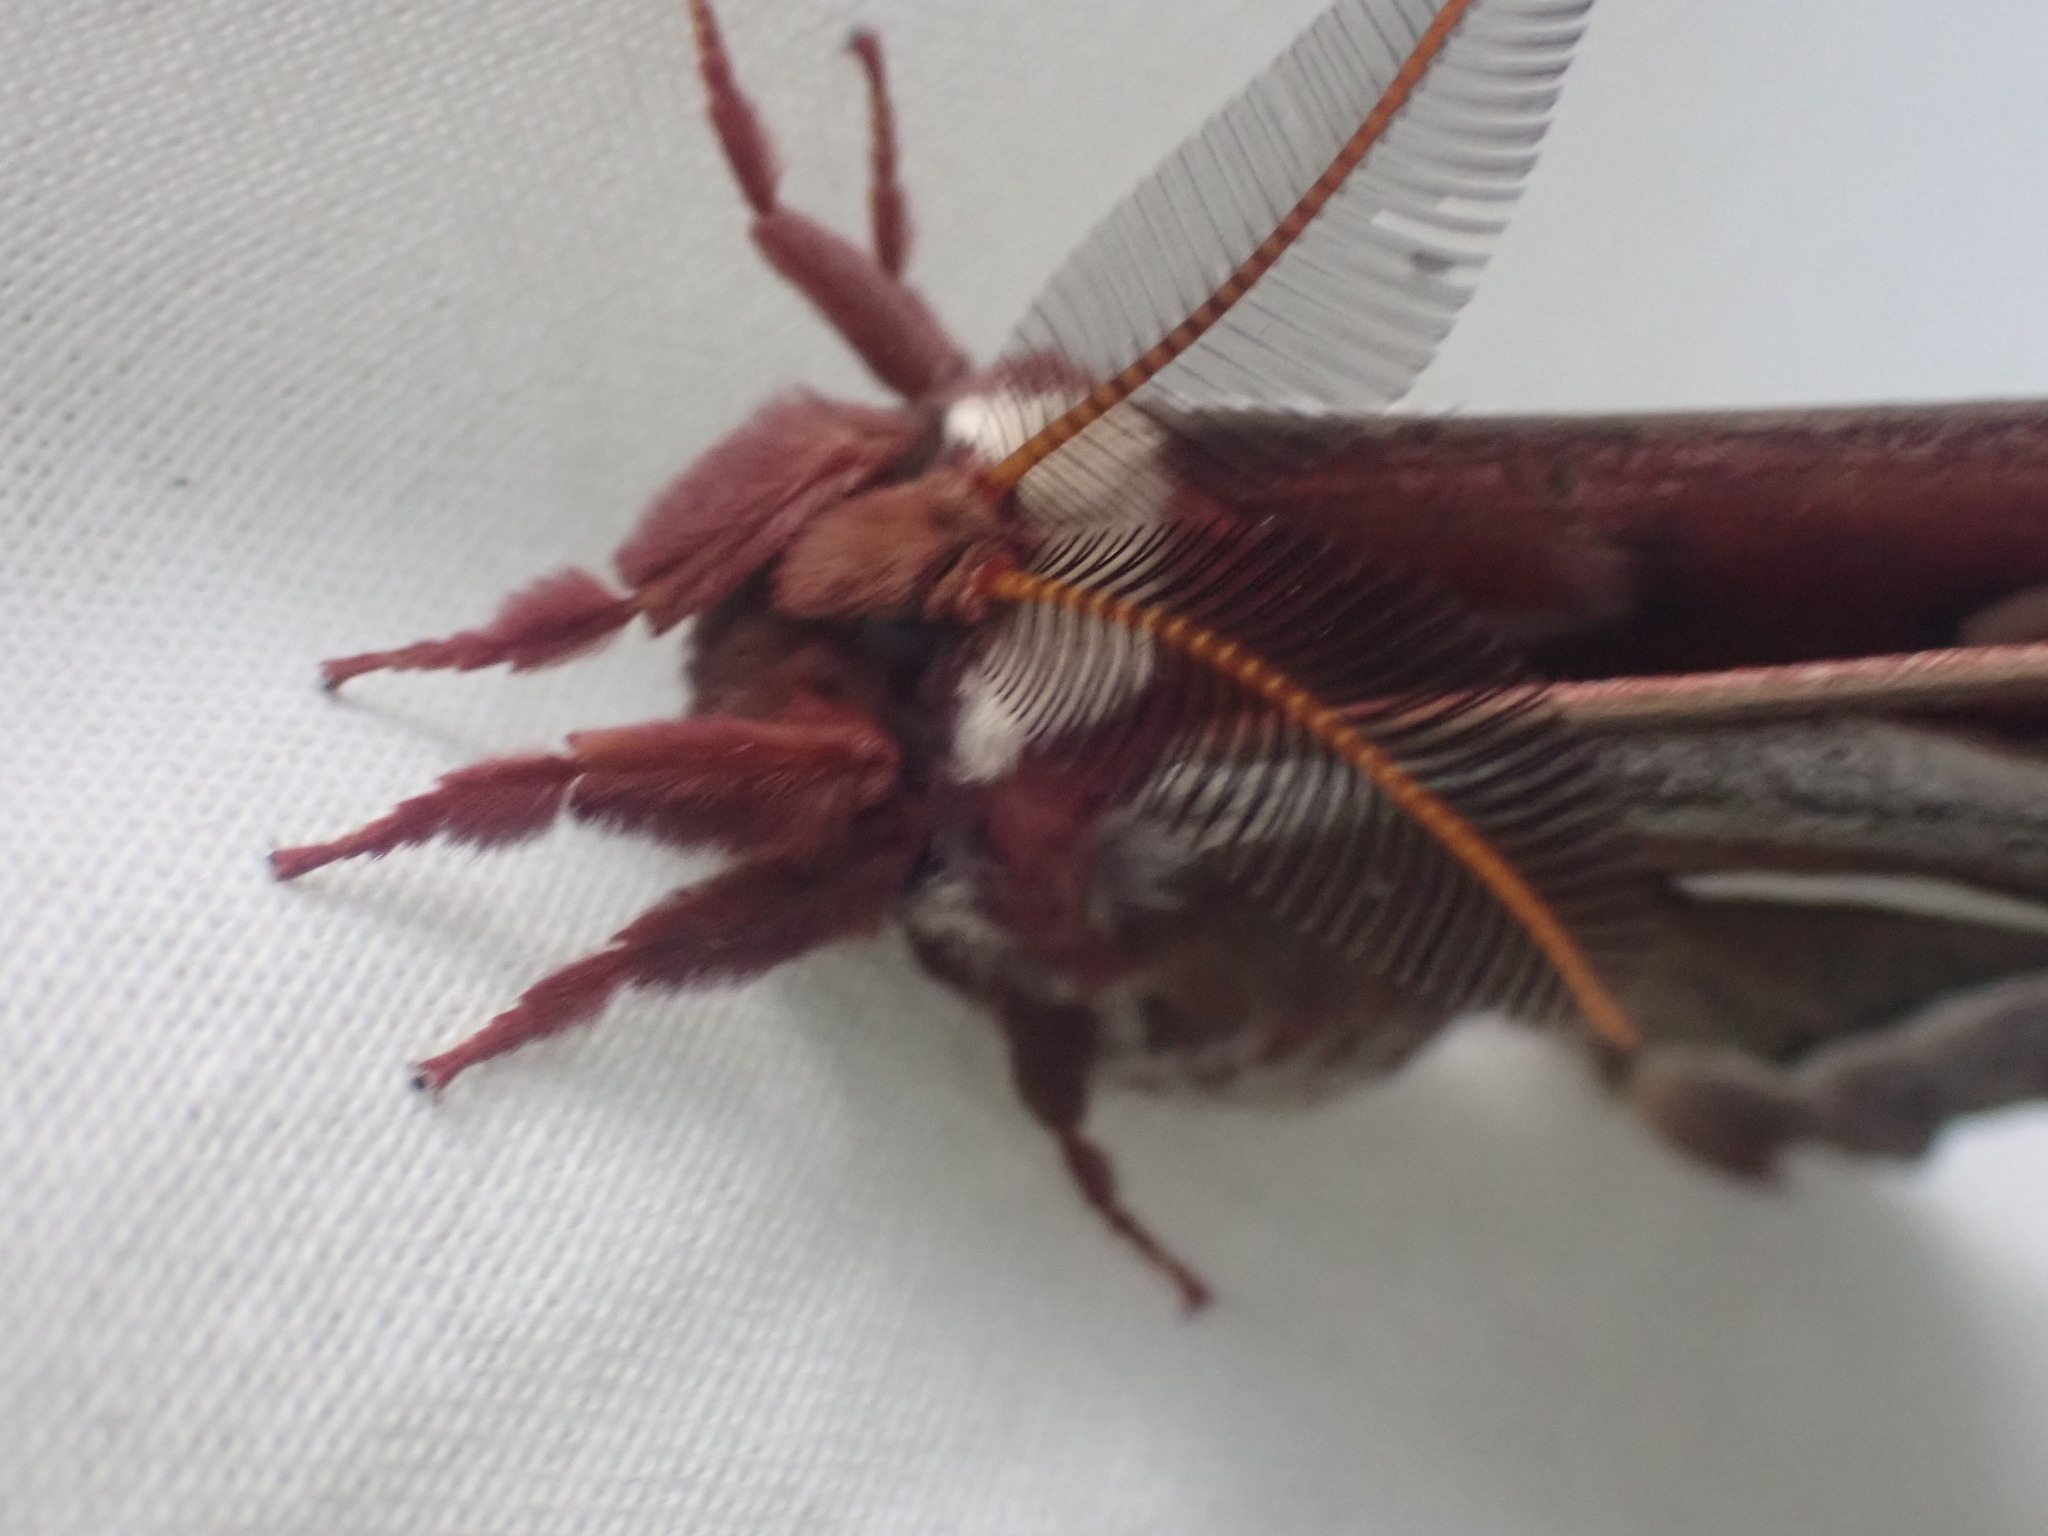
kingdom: Animalia
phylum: Arthropoda
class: Insecta
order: Lepidoptera
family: Saturniidae
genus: Hyalophora
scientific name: Hyalophora euryalus
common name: Ceanothus silkmoth
